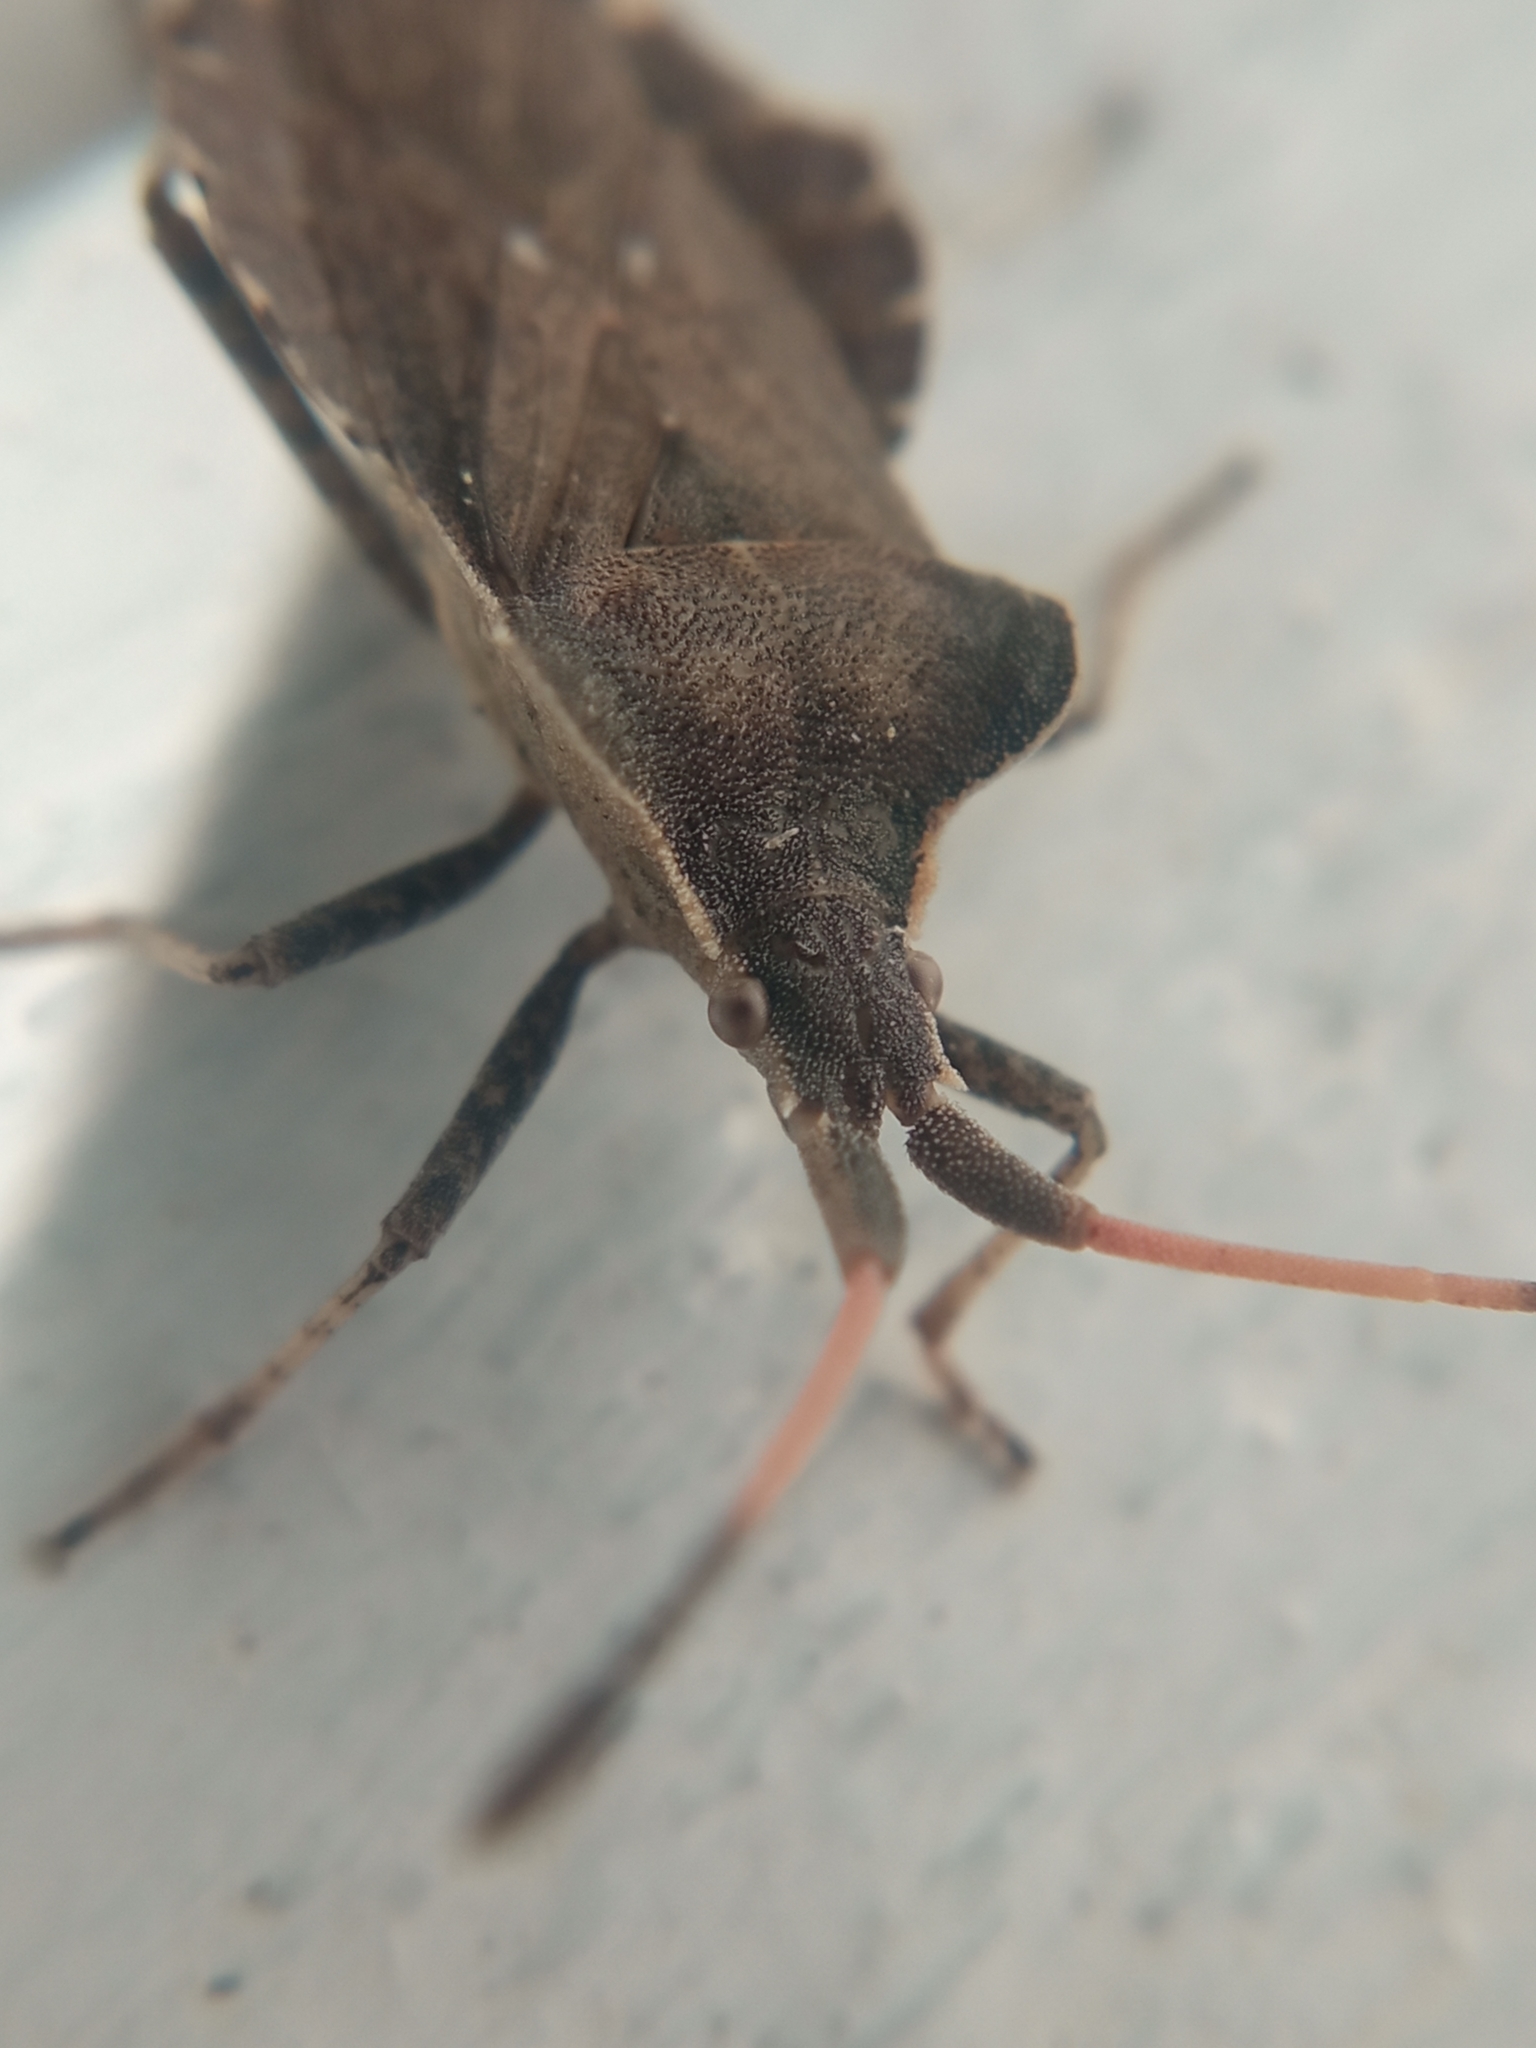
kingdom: Animalia
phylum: Arthropoda
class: Insecta
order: Hemiptera
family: Coreidae
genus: Enoplops
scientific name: Enoplops scapha
